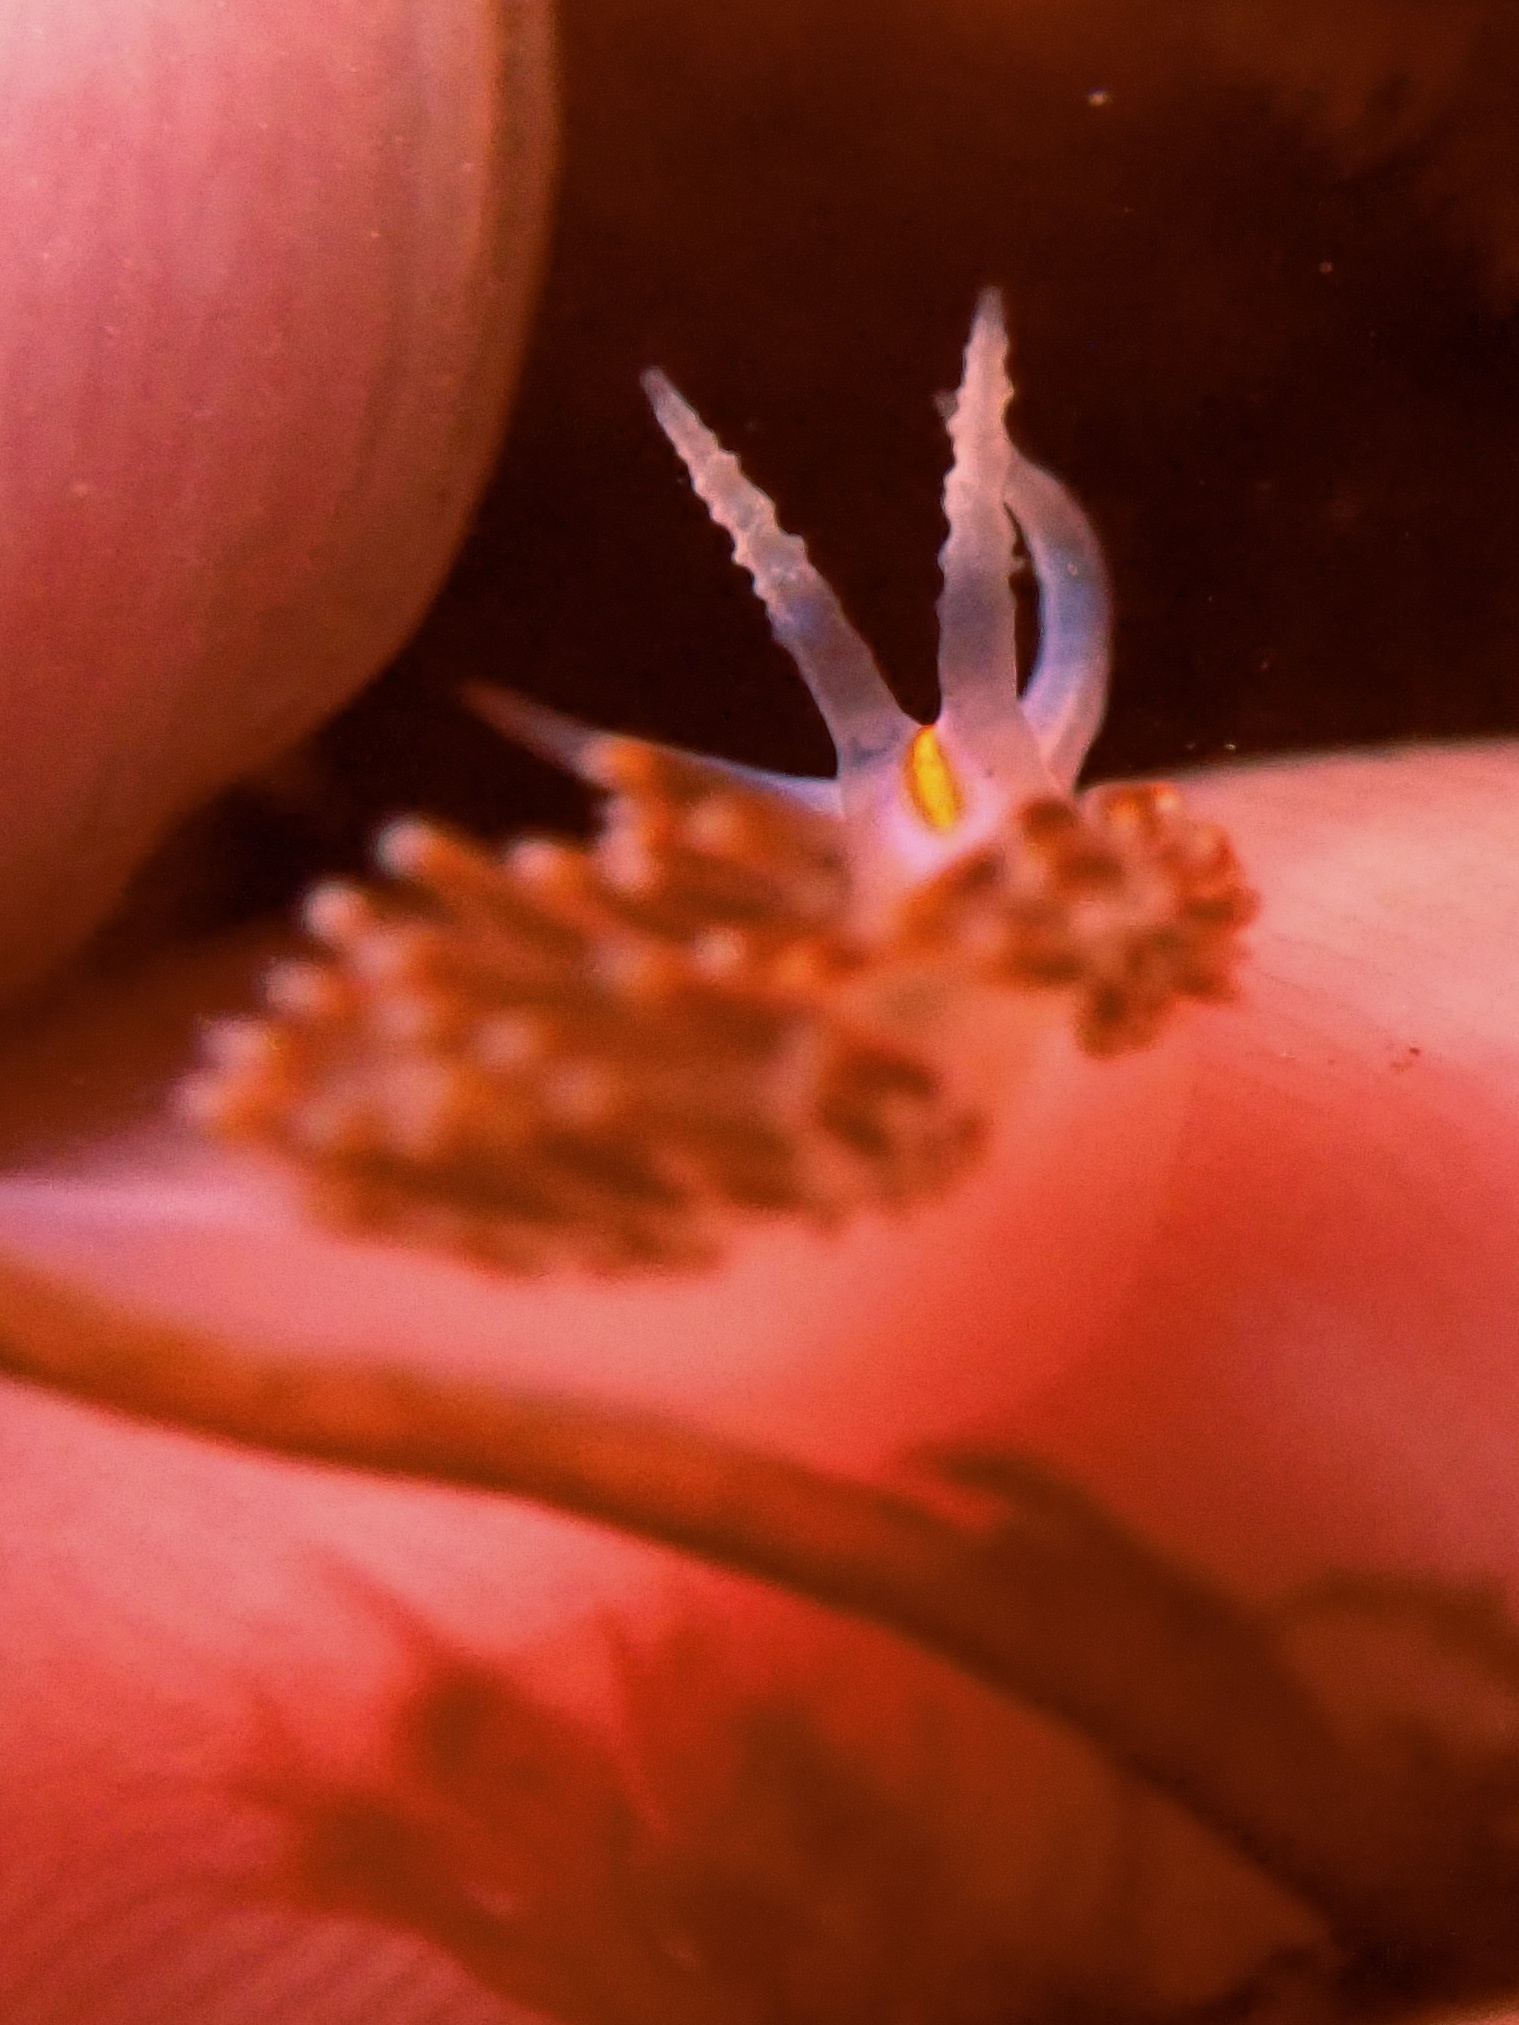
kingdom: Animalia
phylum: Mollusca
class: Gastropoda
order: Nudibranchia
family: Myrrhinidae
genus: Hermissenda
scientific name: Hermissenda opalescens
